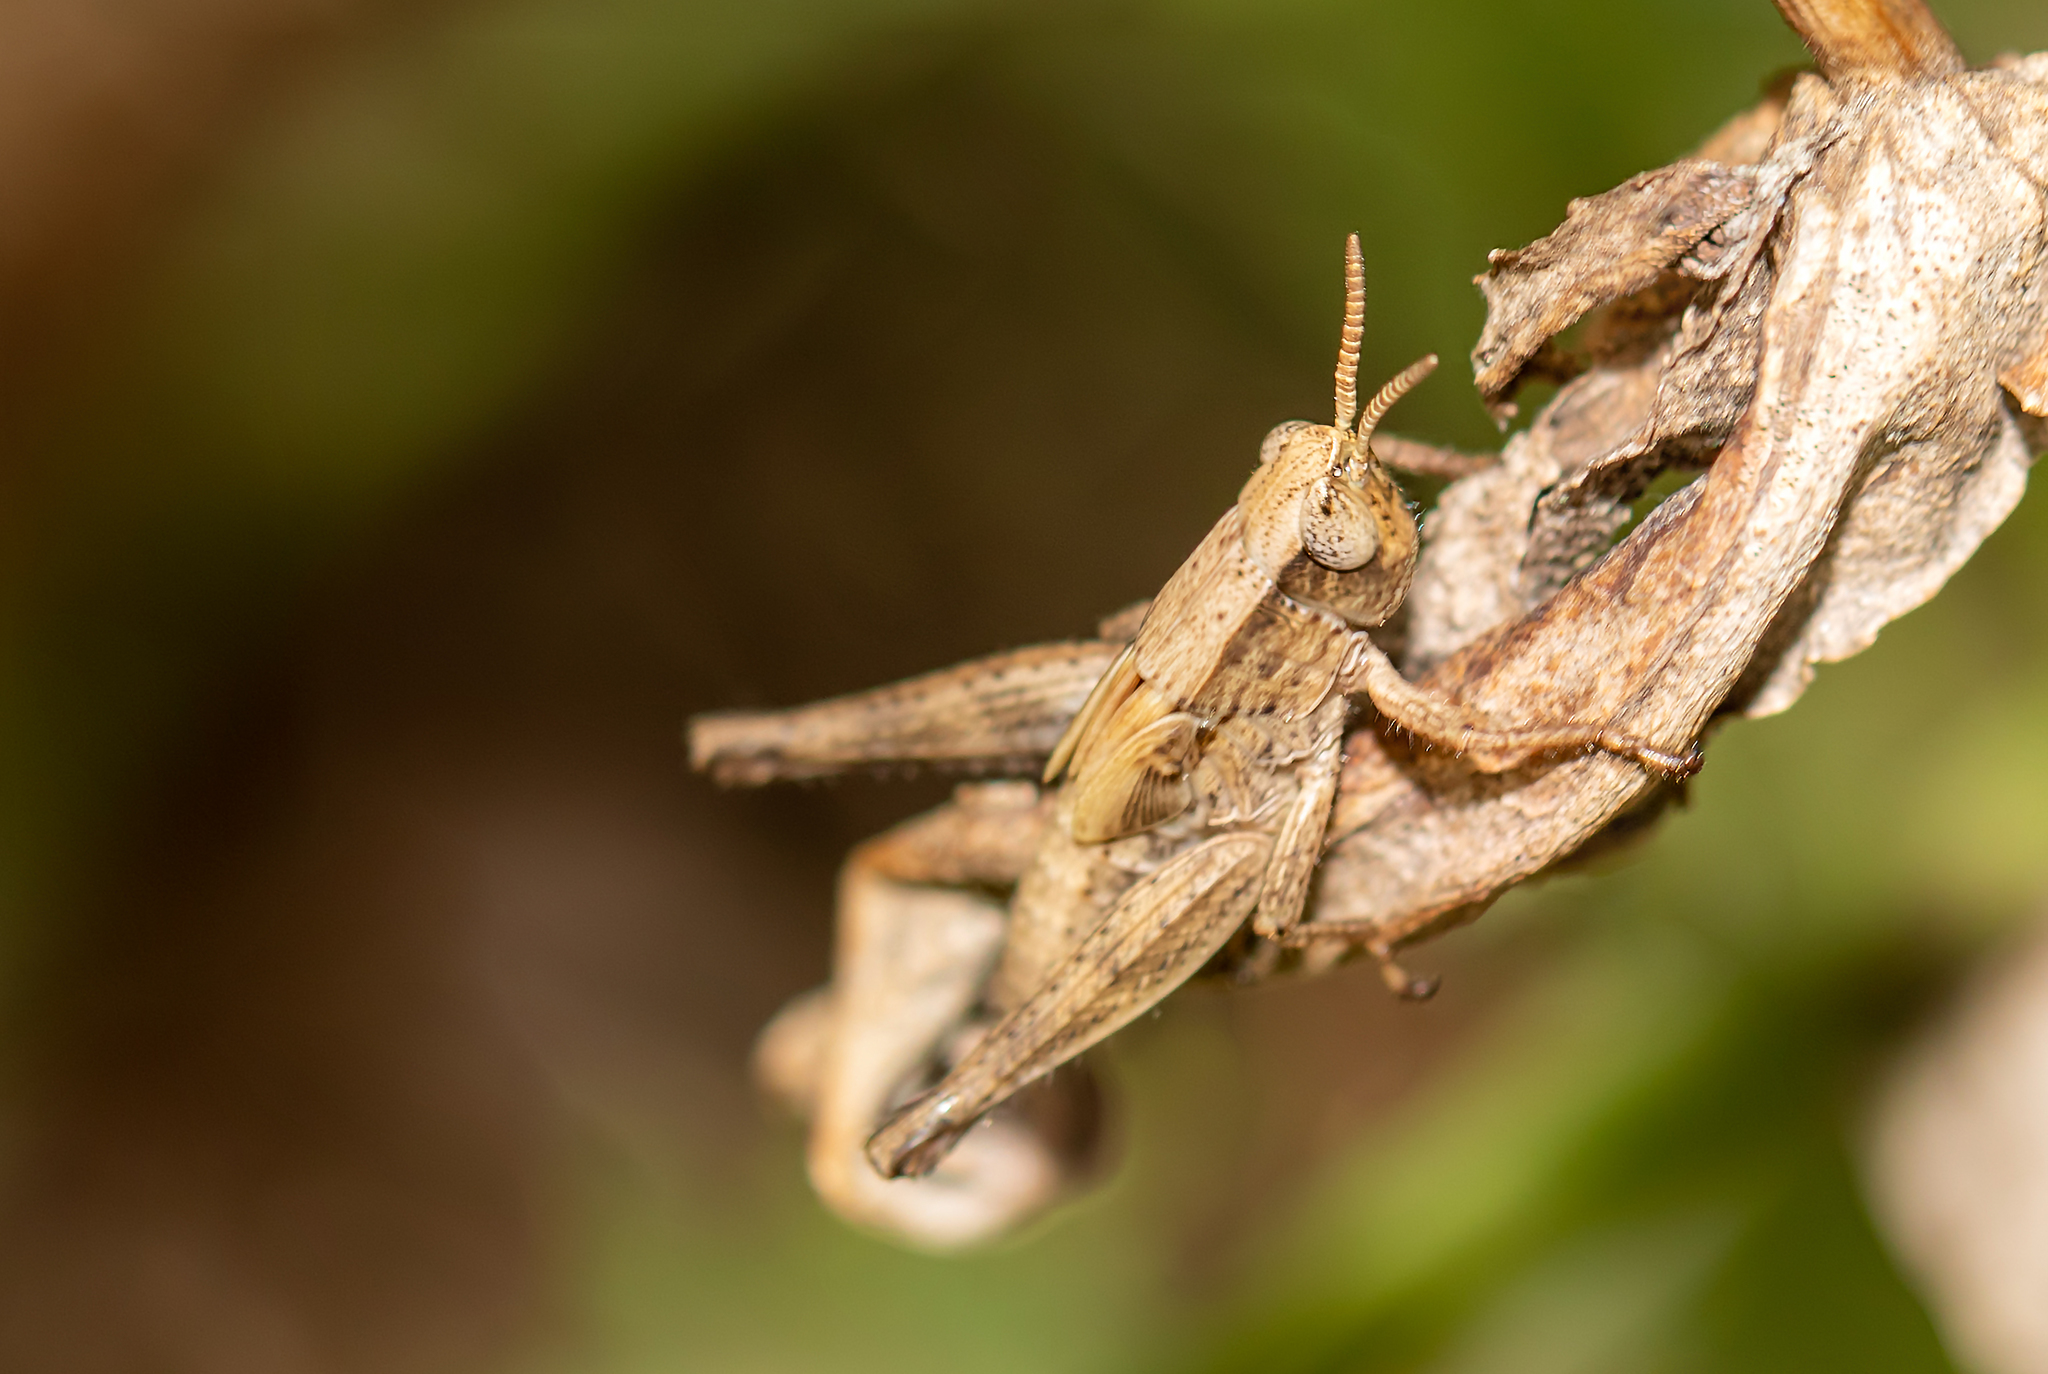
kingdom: Animalia
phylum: Arthropoda
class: Insecta
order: Orthoptera
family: Acrididae
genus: Dichromorpha
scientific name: Dichromorpha viridis
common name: Short-winged green grasshopper
